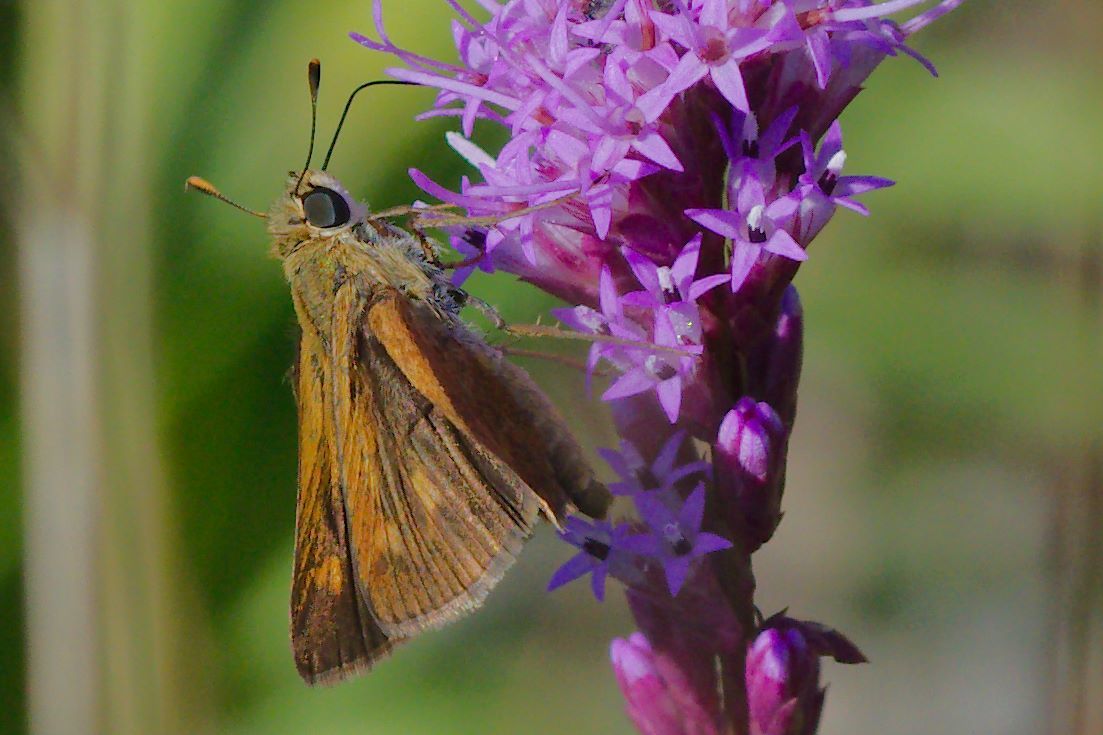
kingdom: Animalia
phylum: Arthropoda
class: Insecta
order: Lepidoptera
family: Hesperiidae
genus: Polites
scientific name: Polites otho
